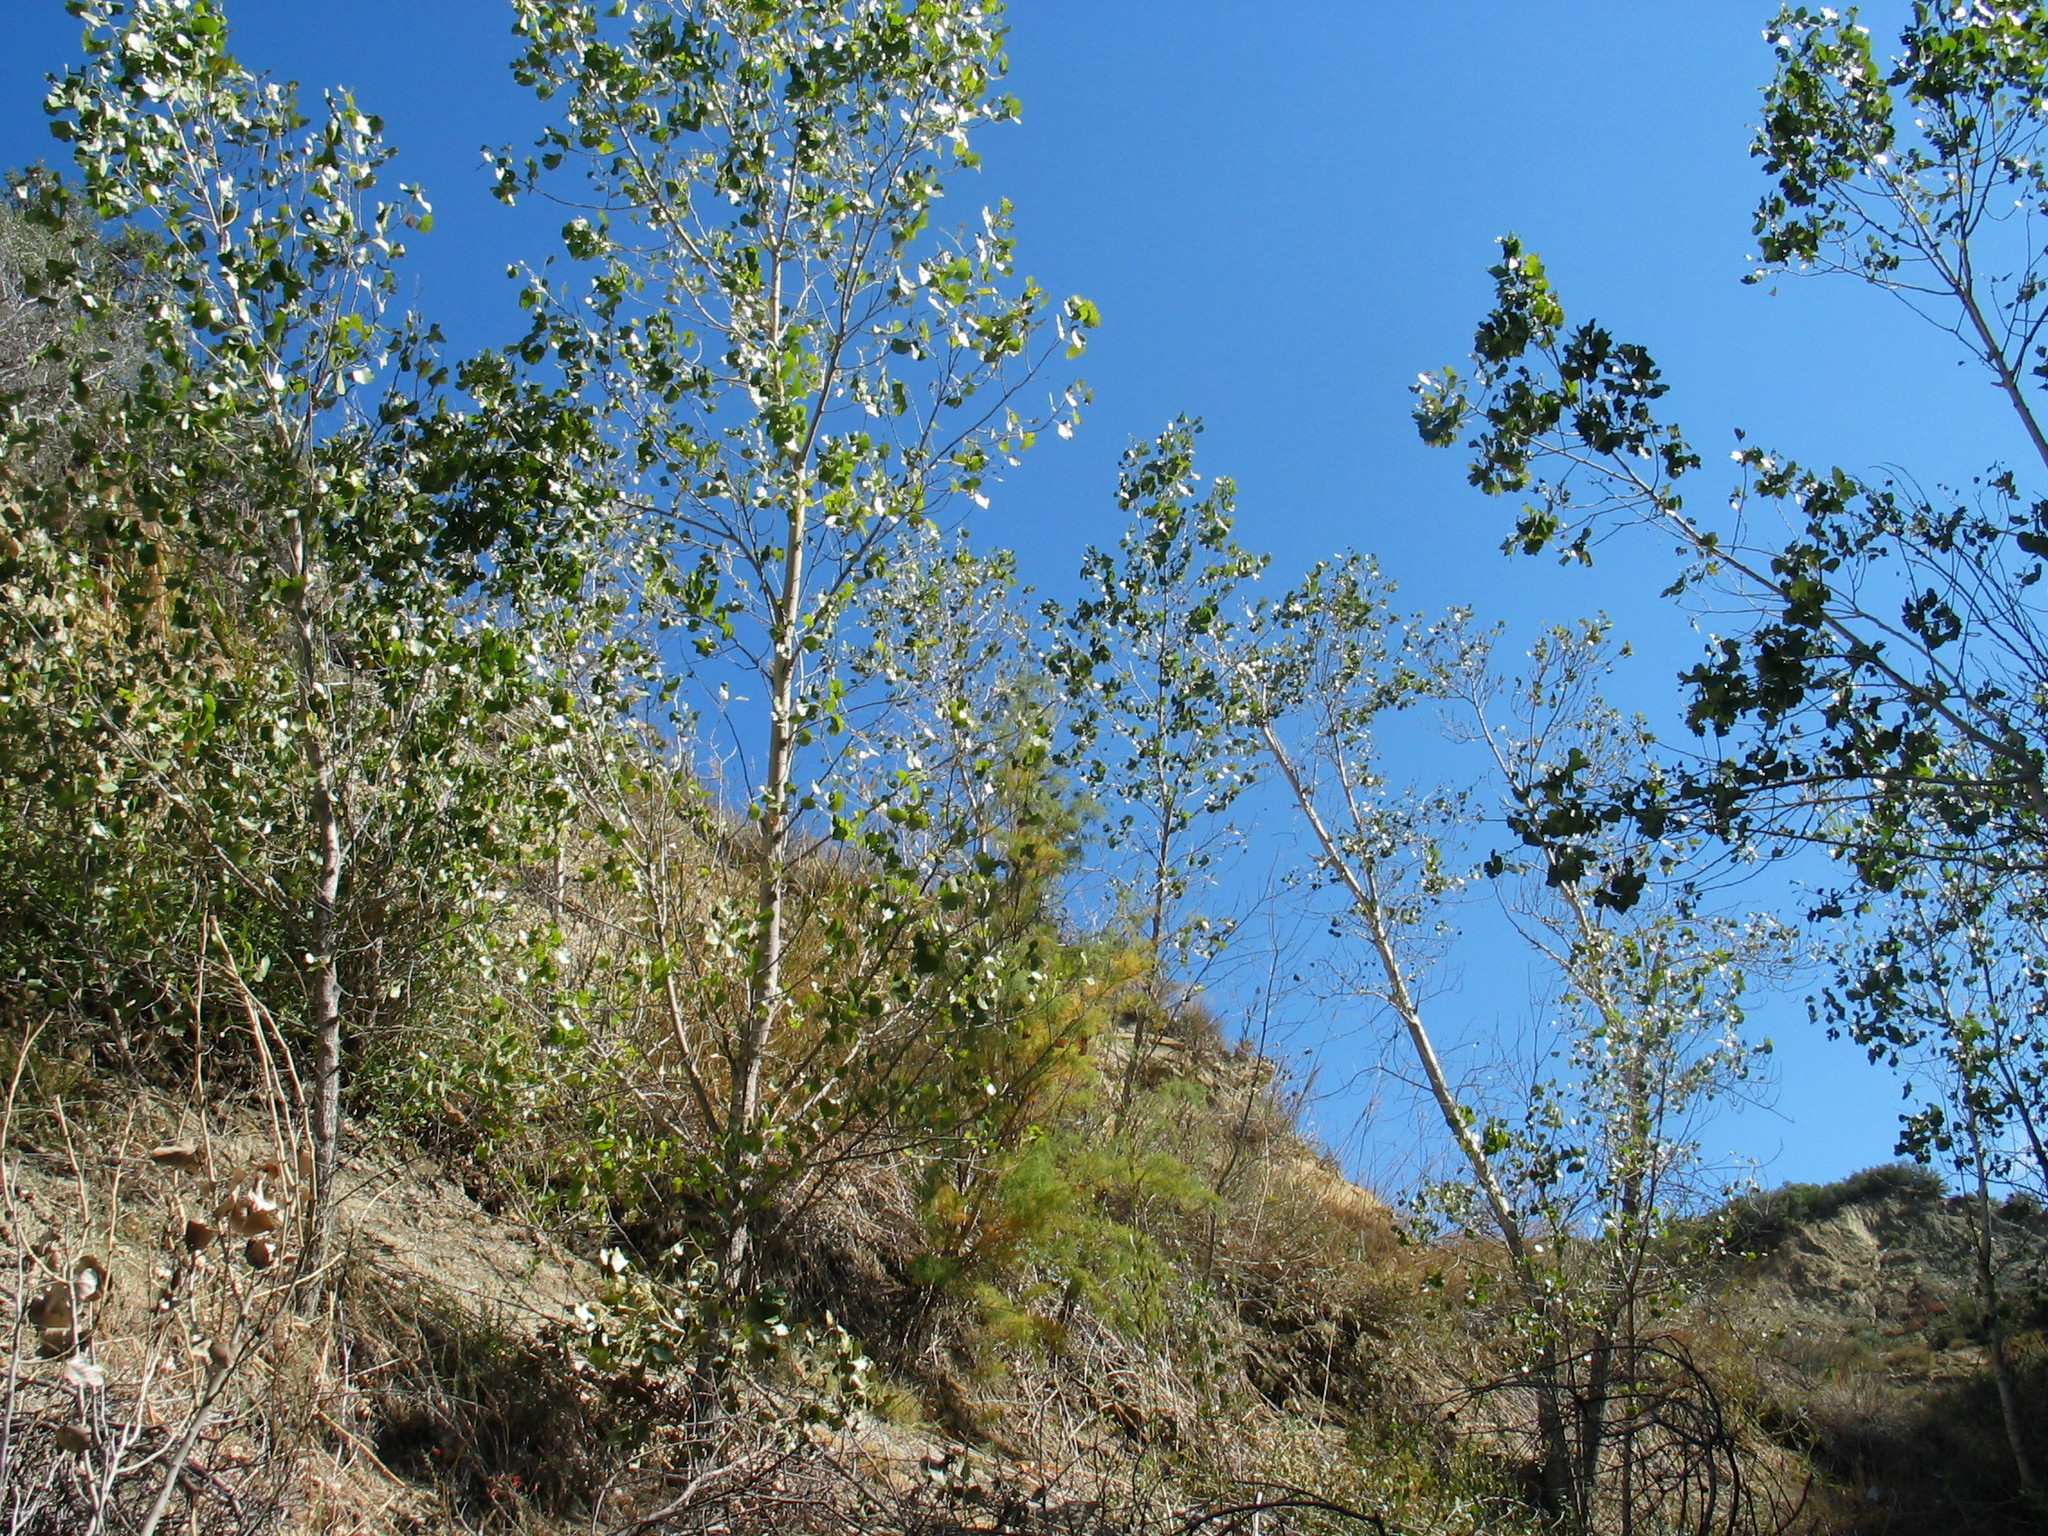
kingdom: Plantae
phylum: Tracheophyta
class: Magnoliopsida
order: Caryophyllales
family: Tamaricaceae
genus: Tamarix
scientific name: Tamarix
